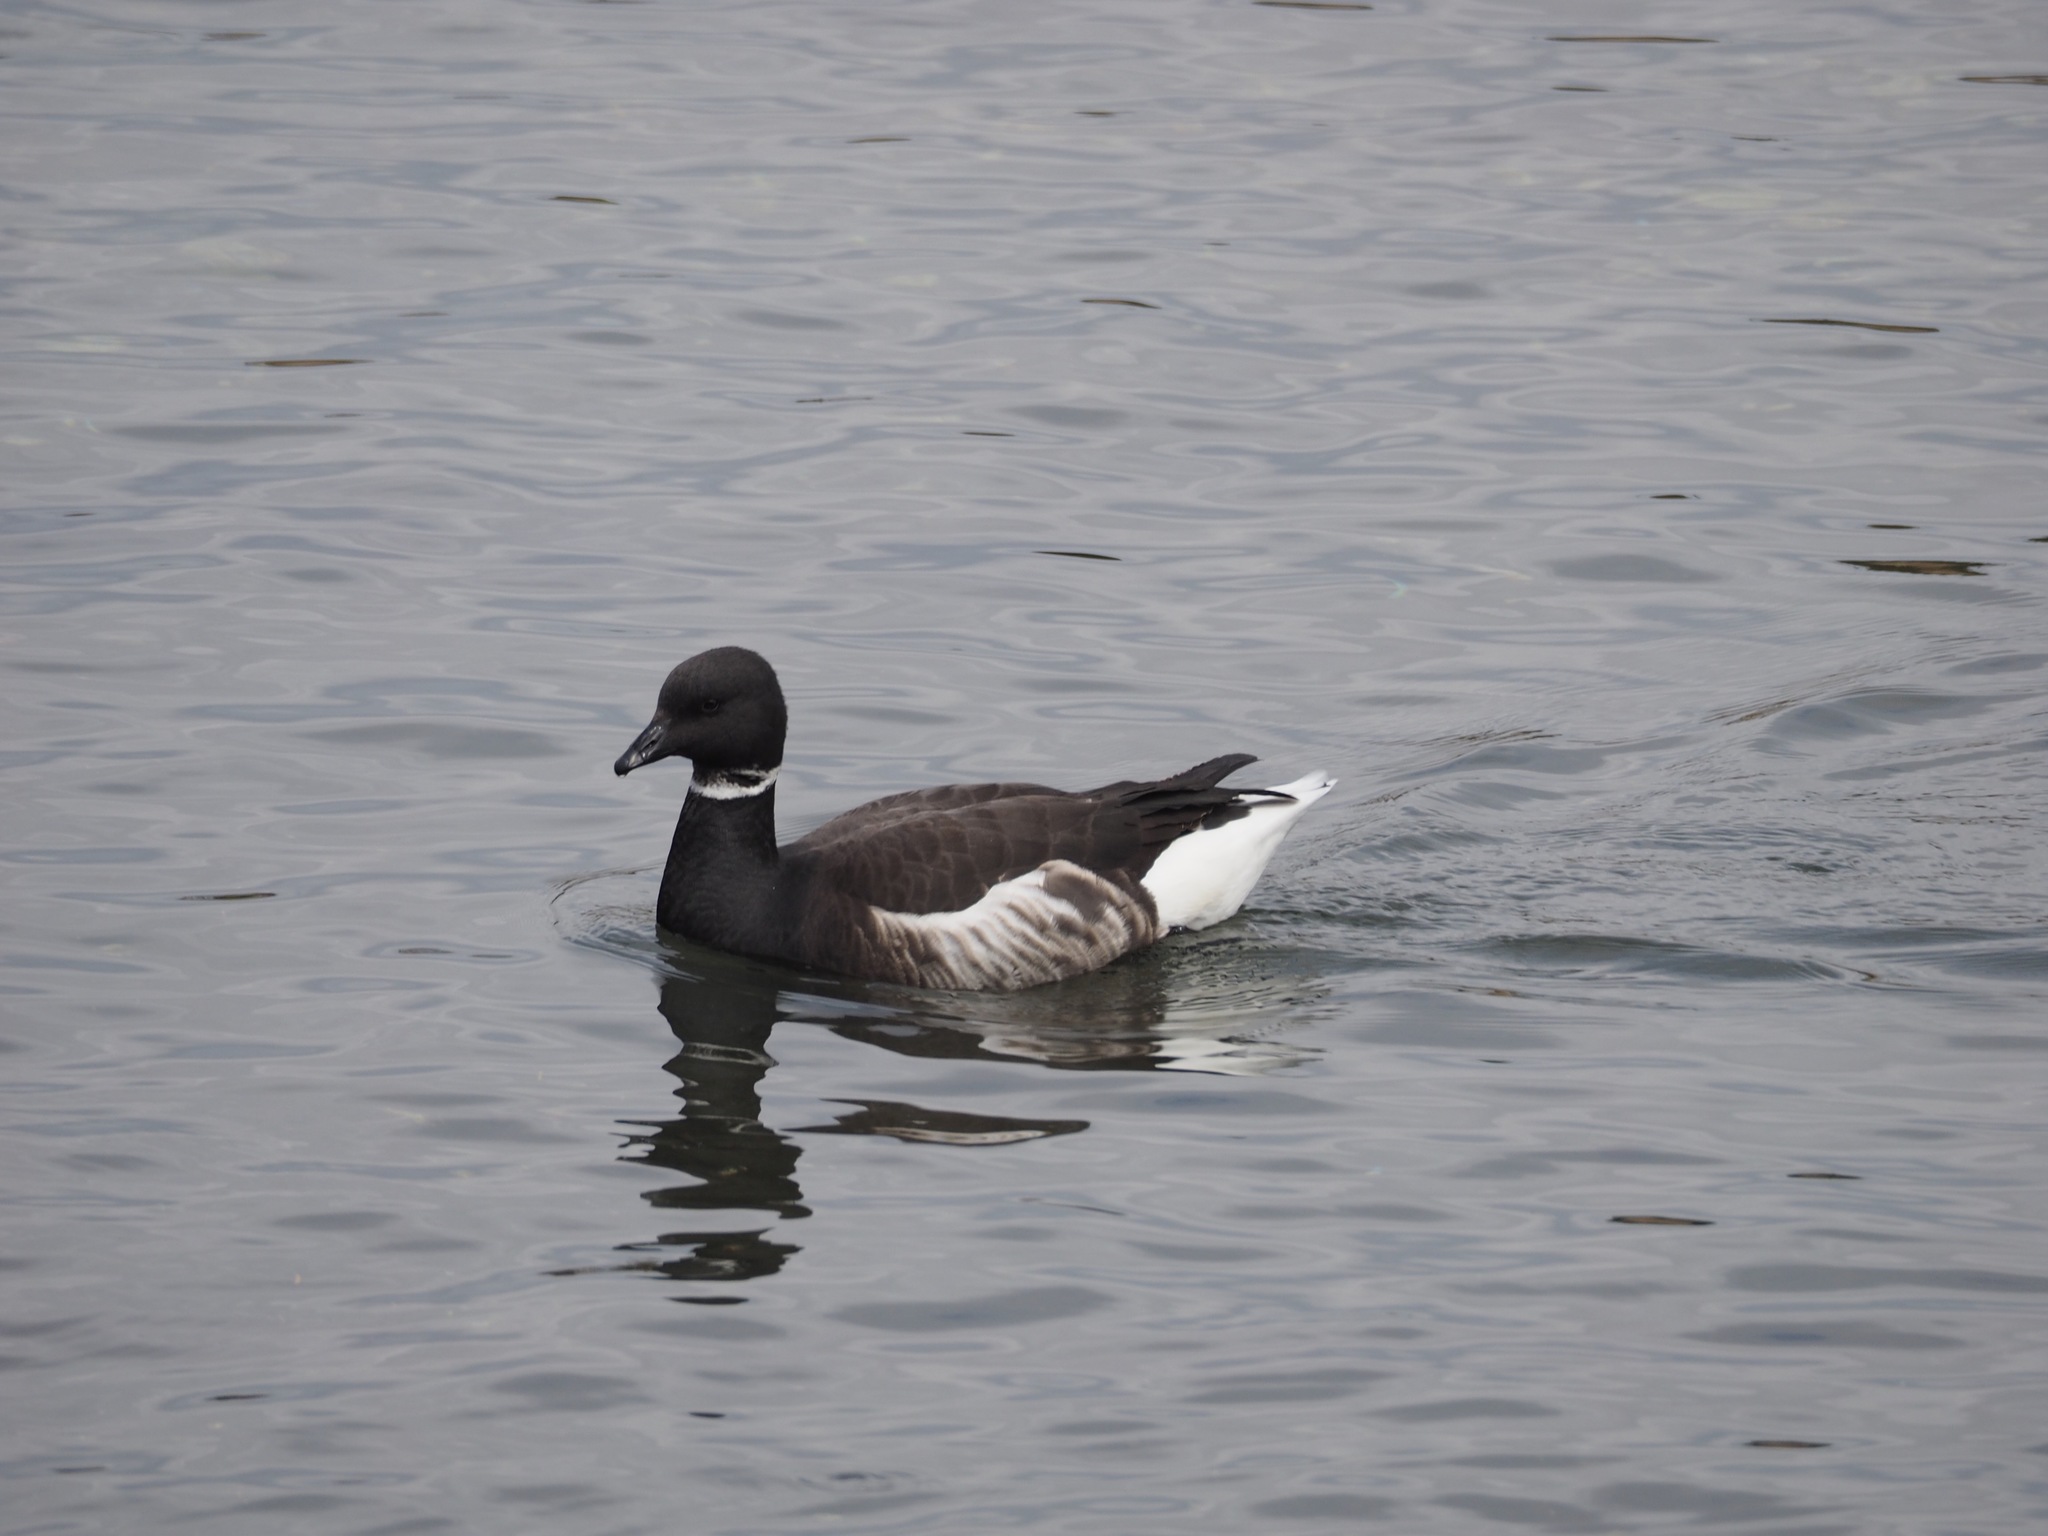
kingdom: Animalia
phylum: Chordata
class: Aves
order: Anseriformes
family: Anatidae
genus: Branta
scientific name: Branta bernicla
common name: Brant goose
